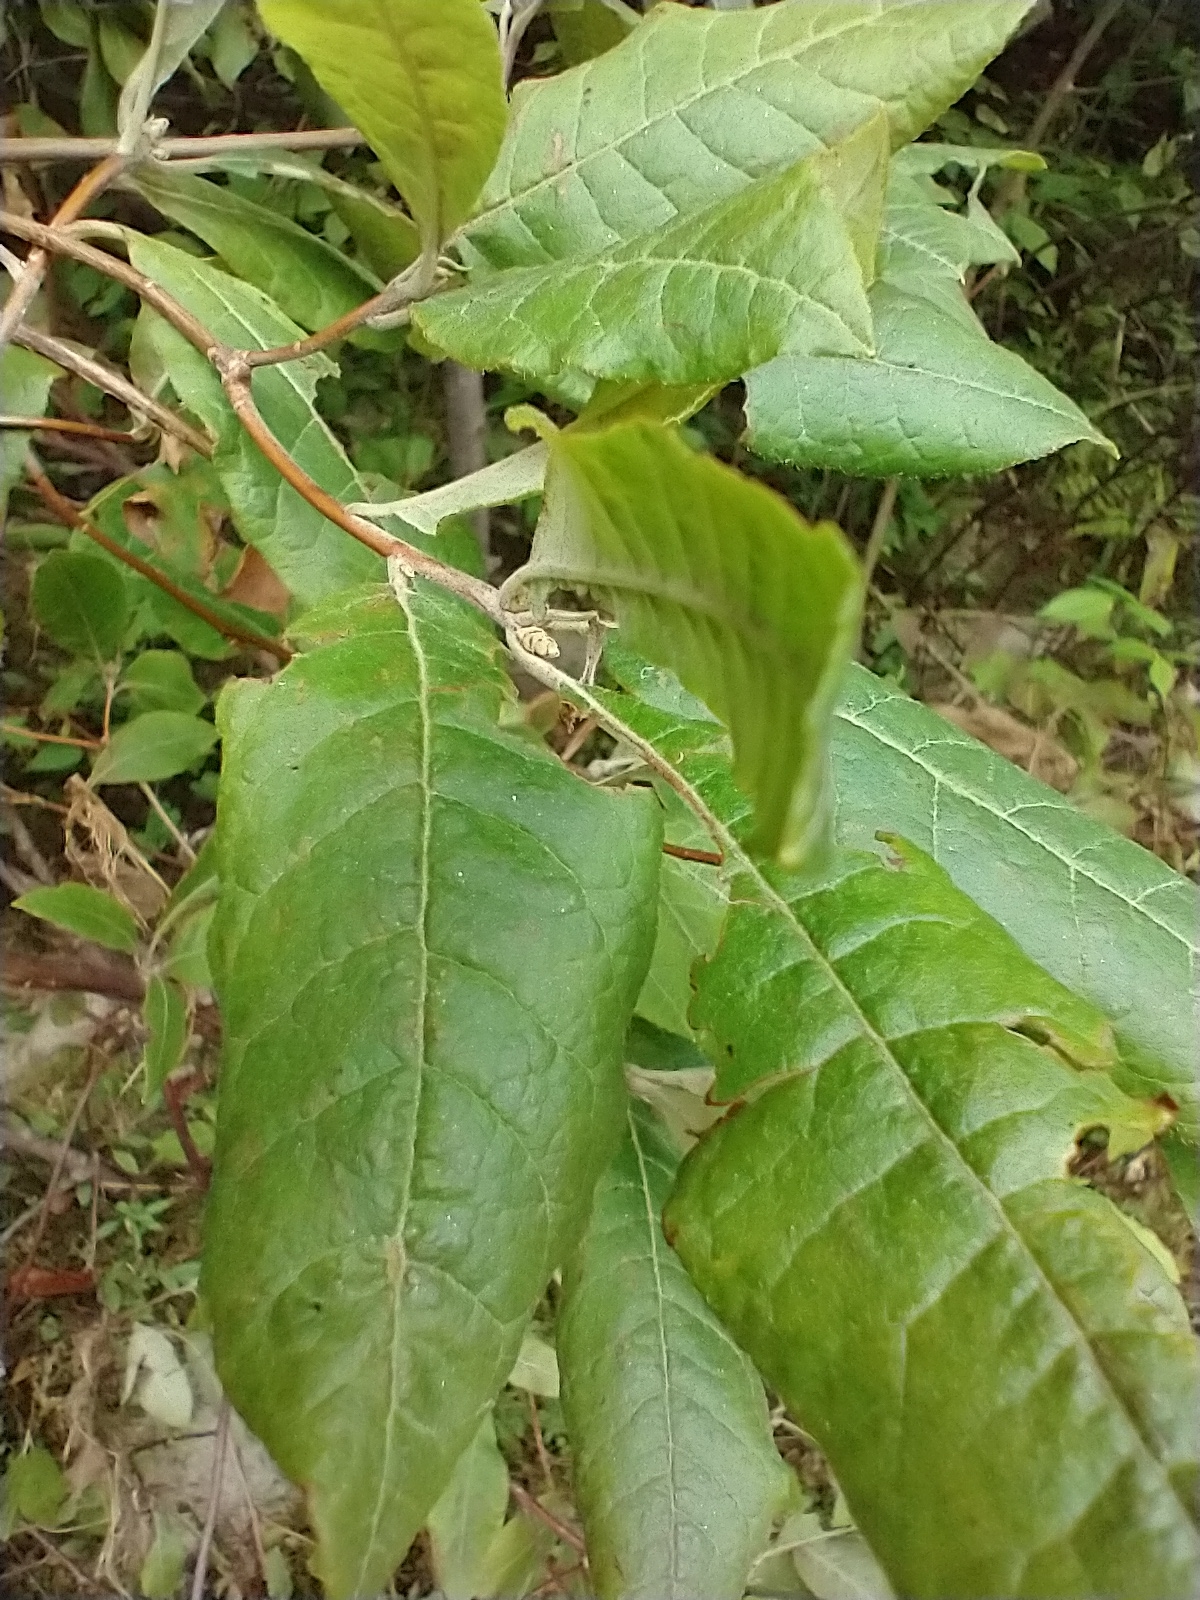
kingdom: Plantae
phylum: Tracheophyta
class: Magnoliopsida
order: Ericales
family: Ericaceae
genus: Rhododendron
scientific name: Rhododendron roseum
